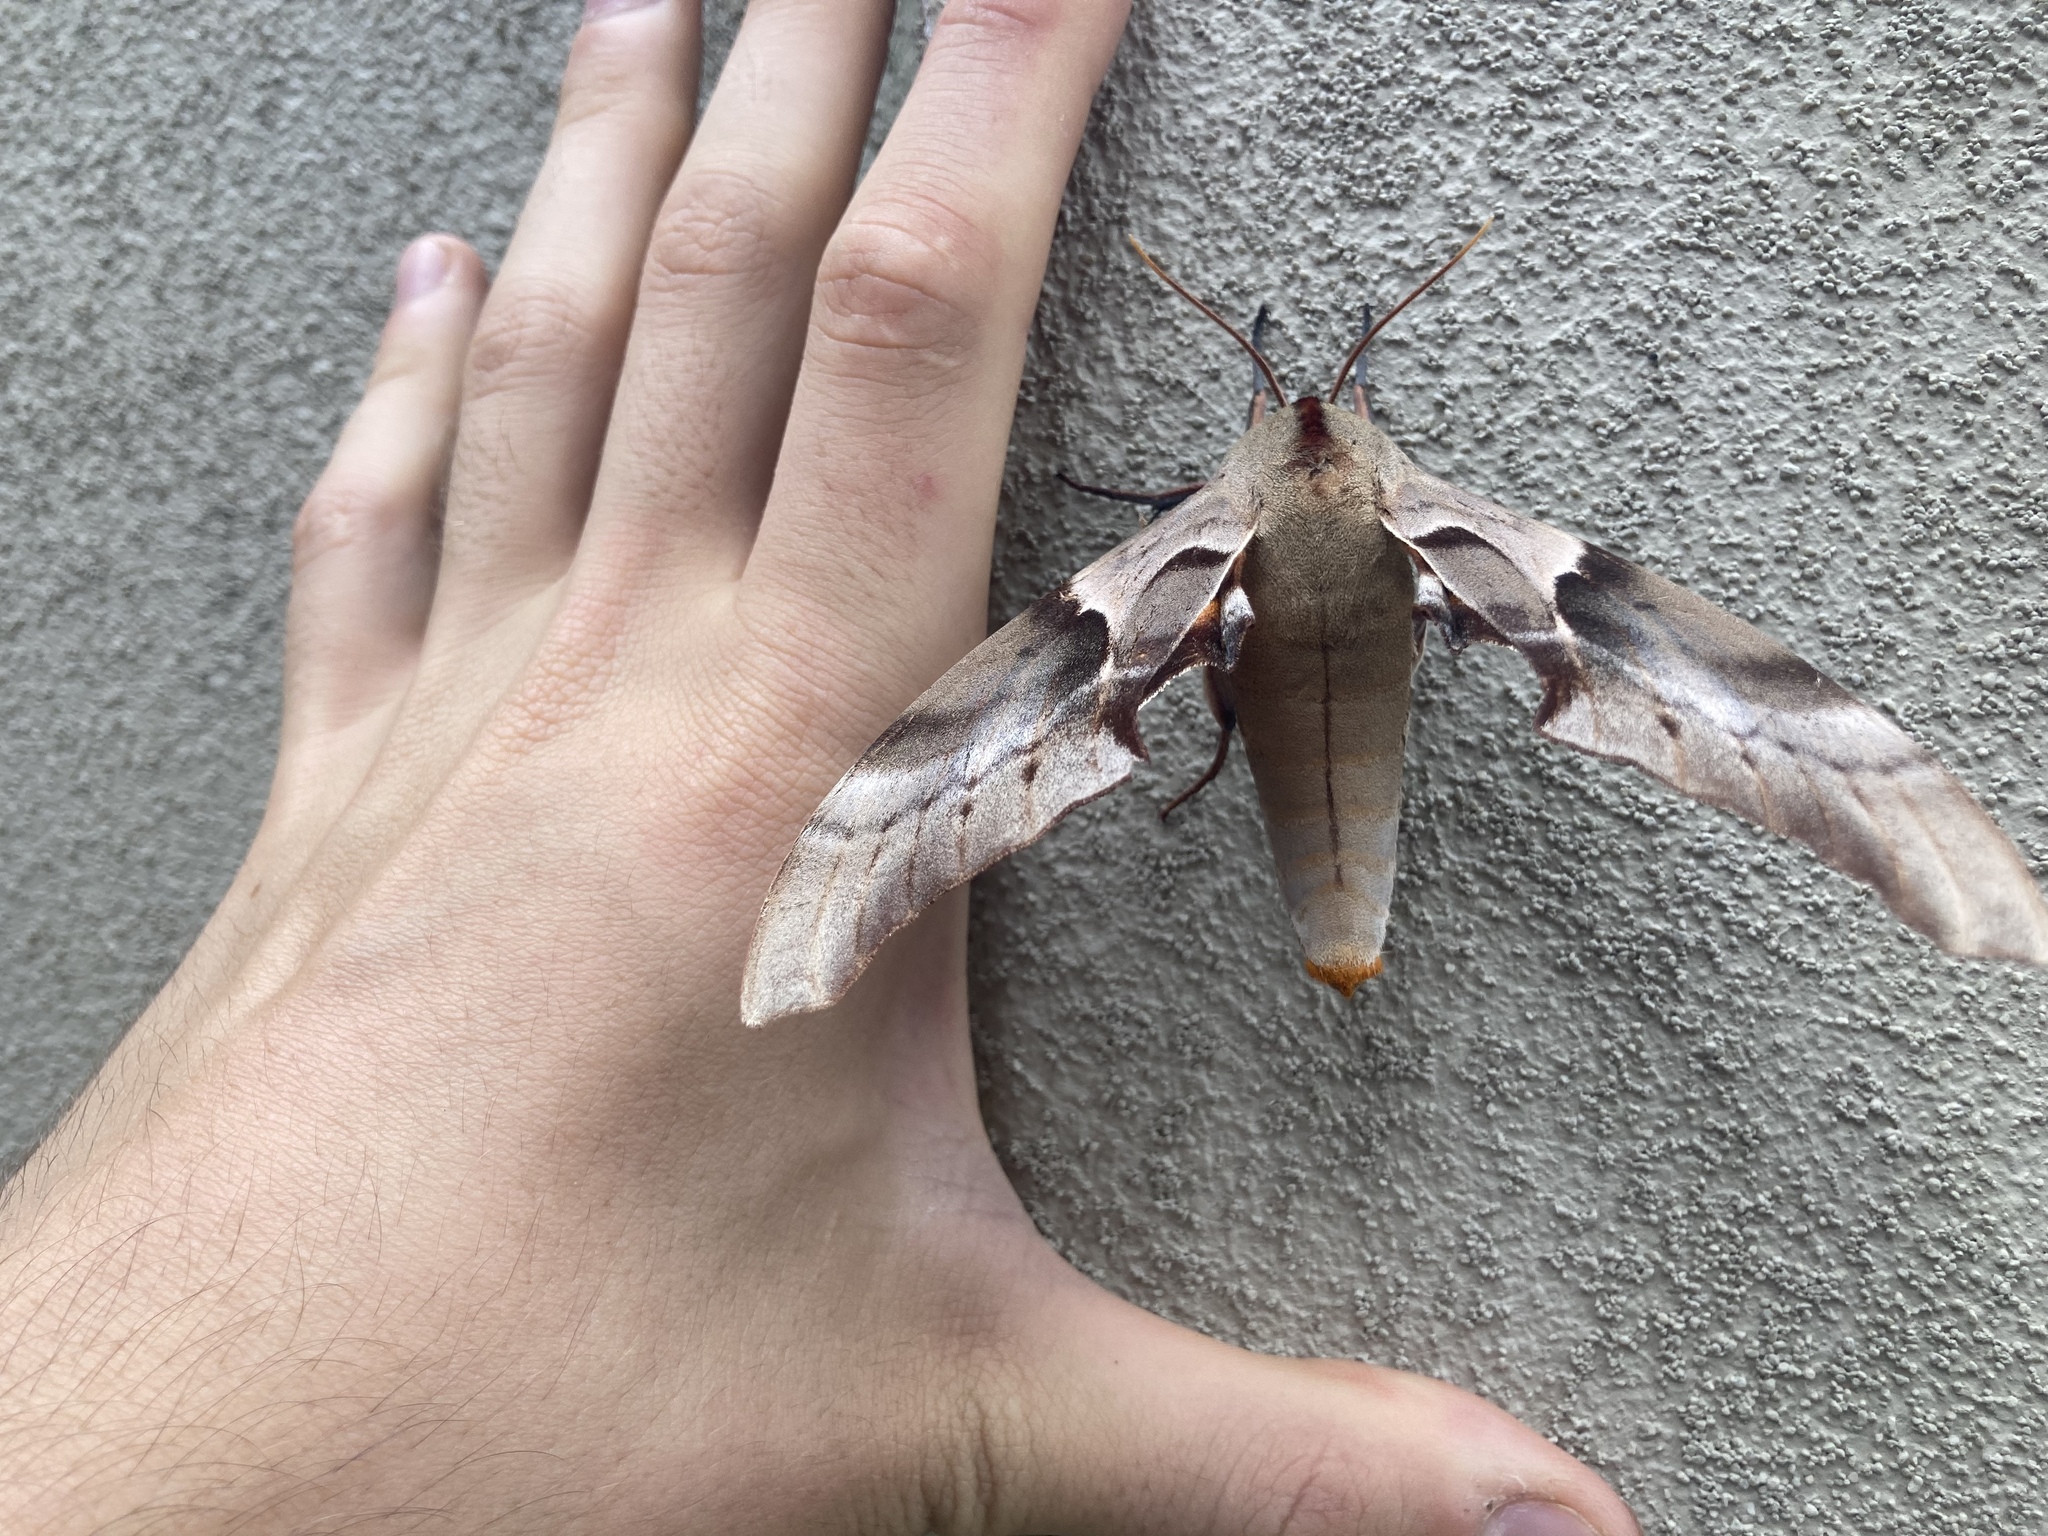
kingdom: Animalia
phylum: Arthropoda
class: Insecta
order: Lepidoptera
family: Sphingidae
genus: Coequosa
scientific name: Coequosa australasiae
